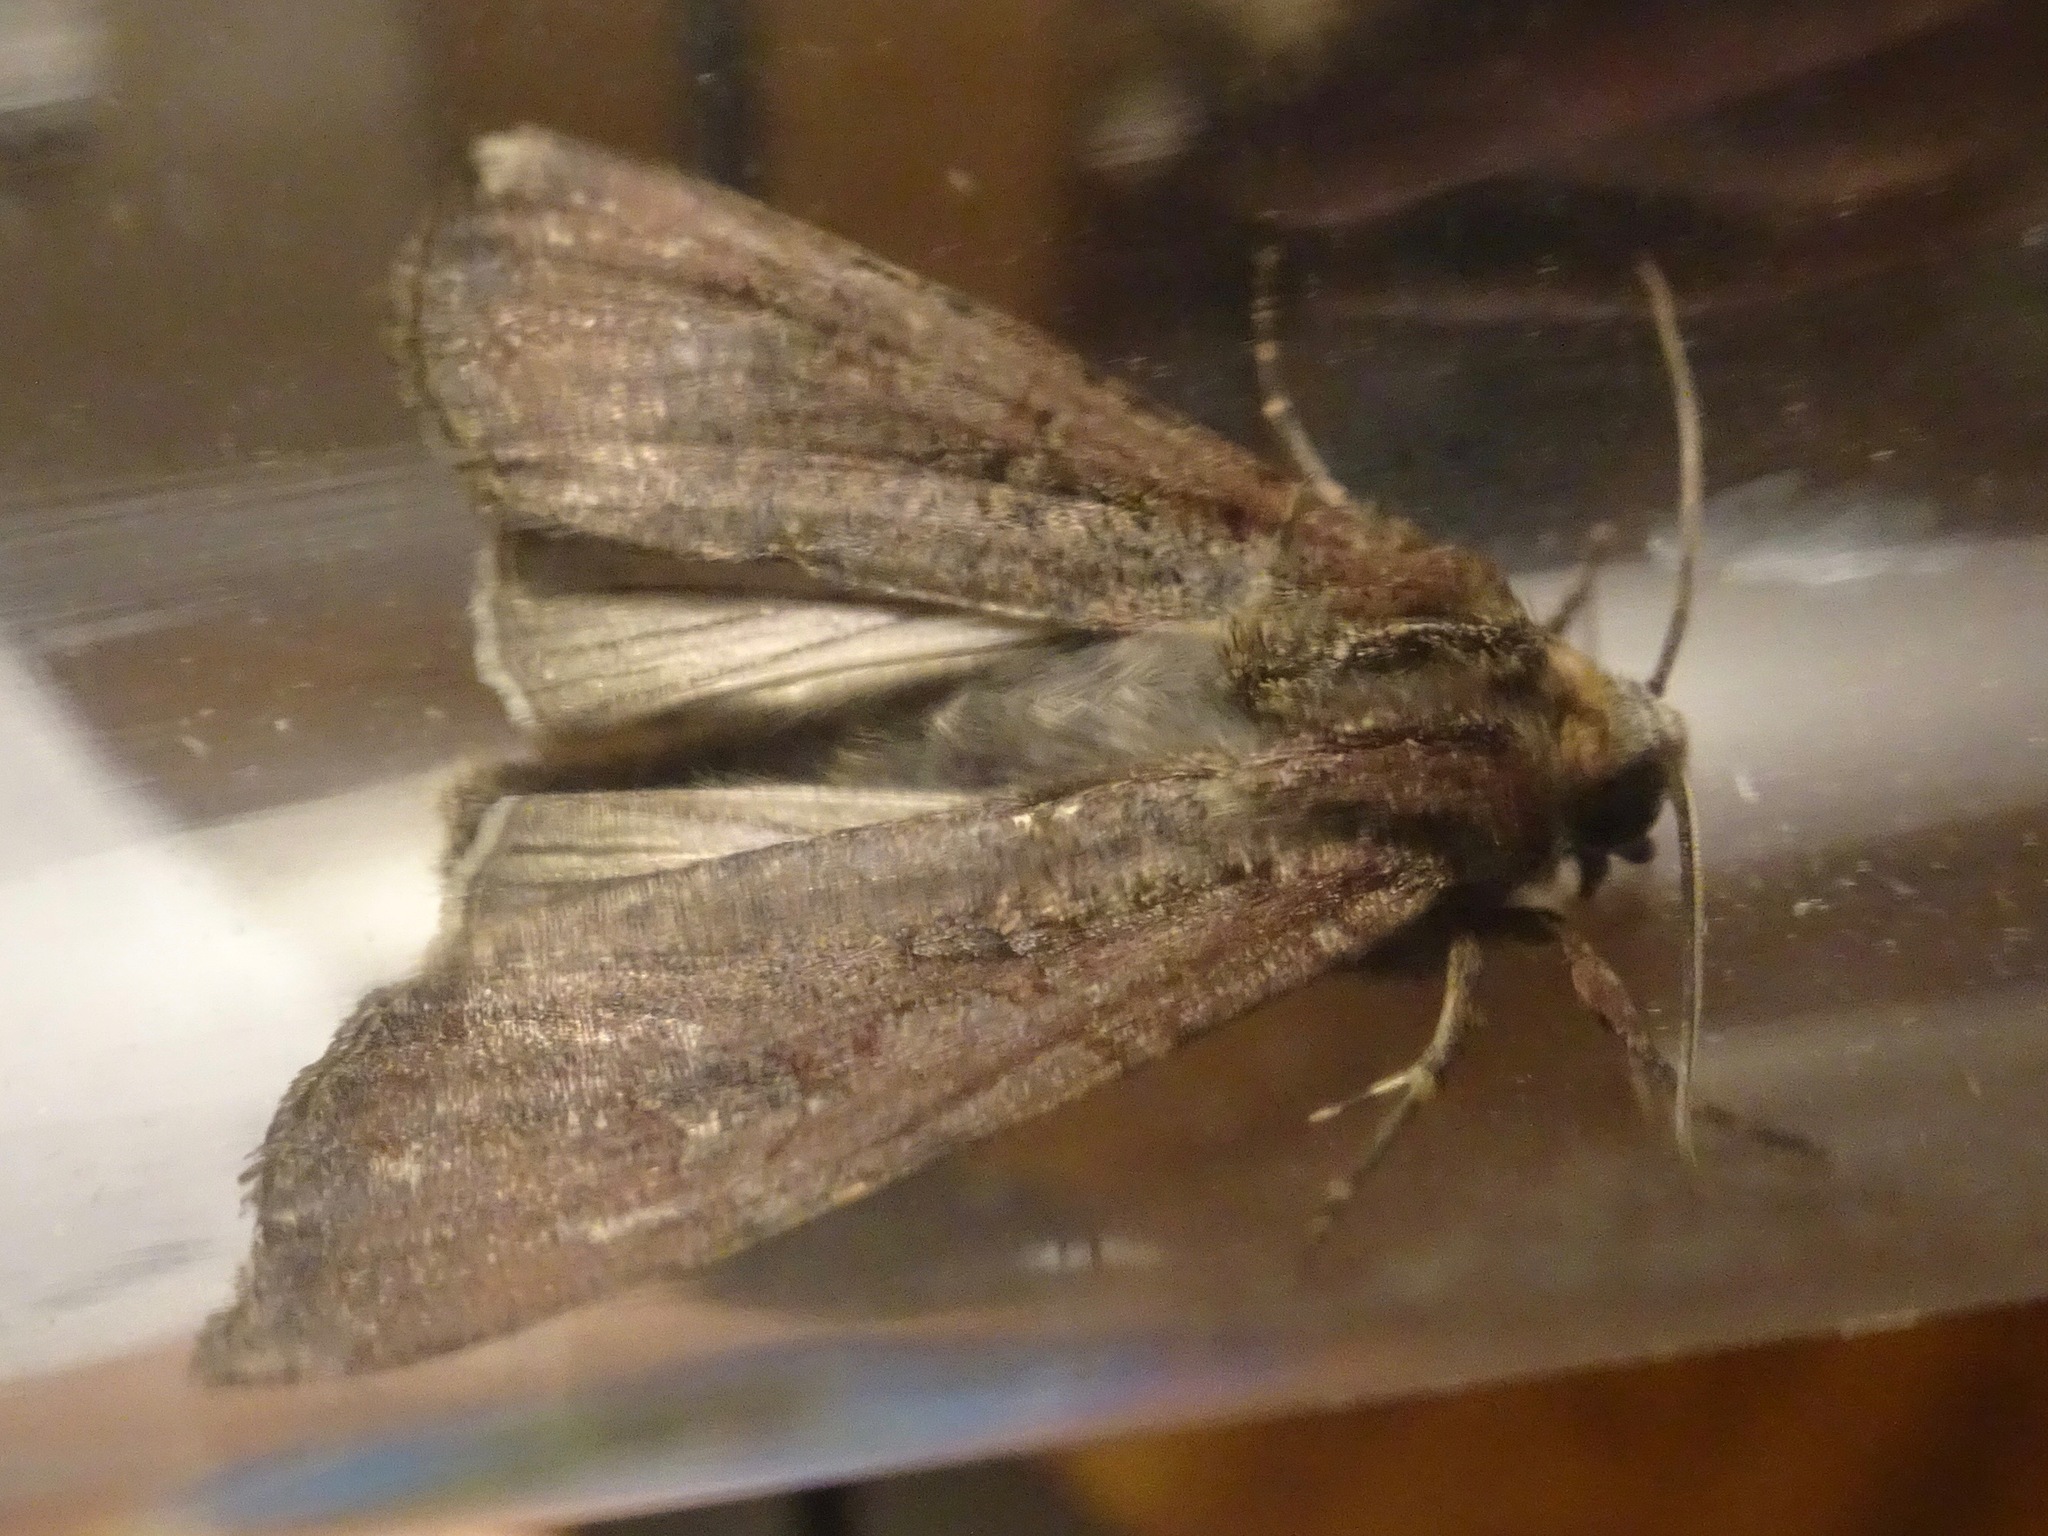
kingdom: Animalia
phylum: Arthropoda
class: Insecta
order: Lepidoptera
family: Noctuidae
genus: Peridroma
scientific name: Peridroma saucia
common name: Pearly underwing
